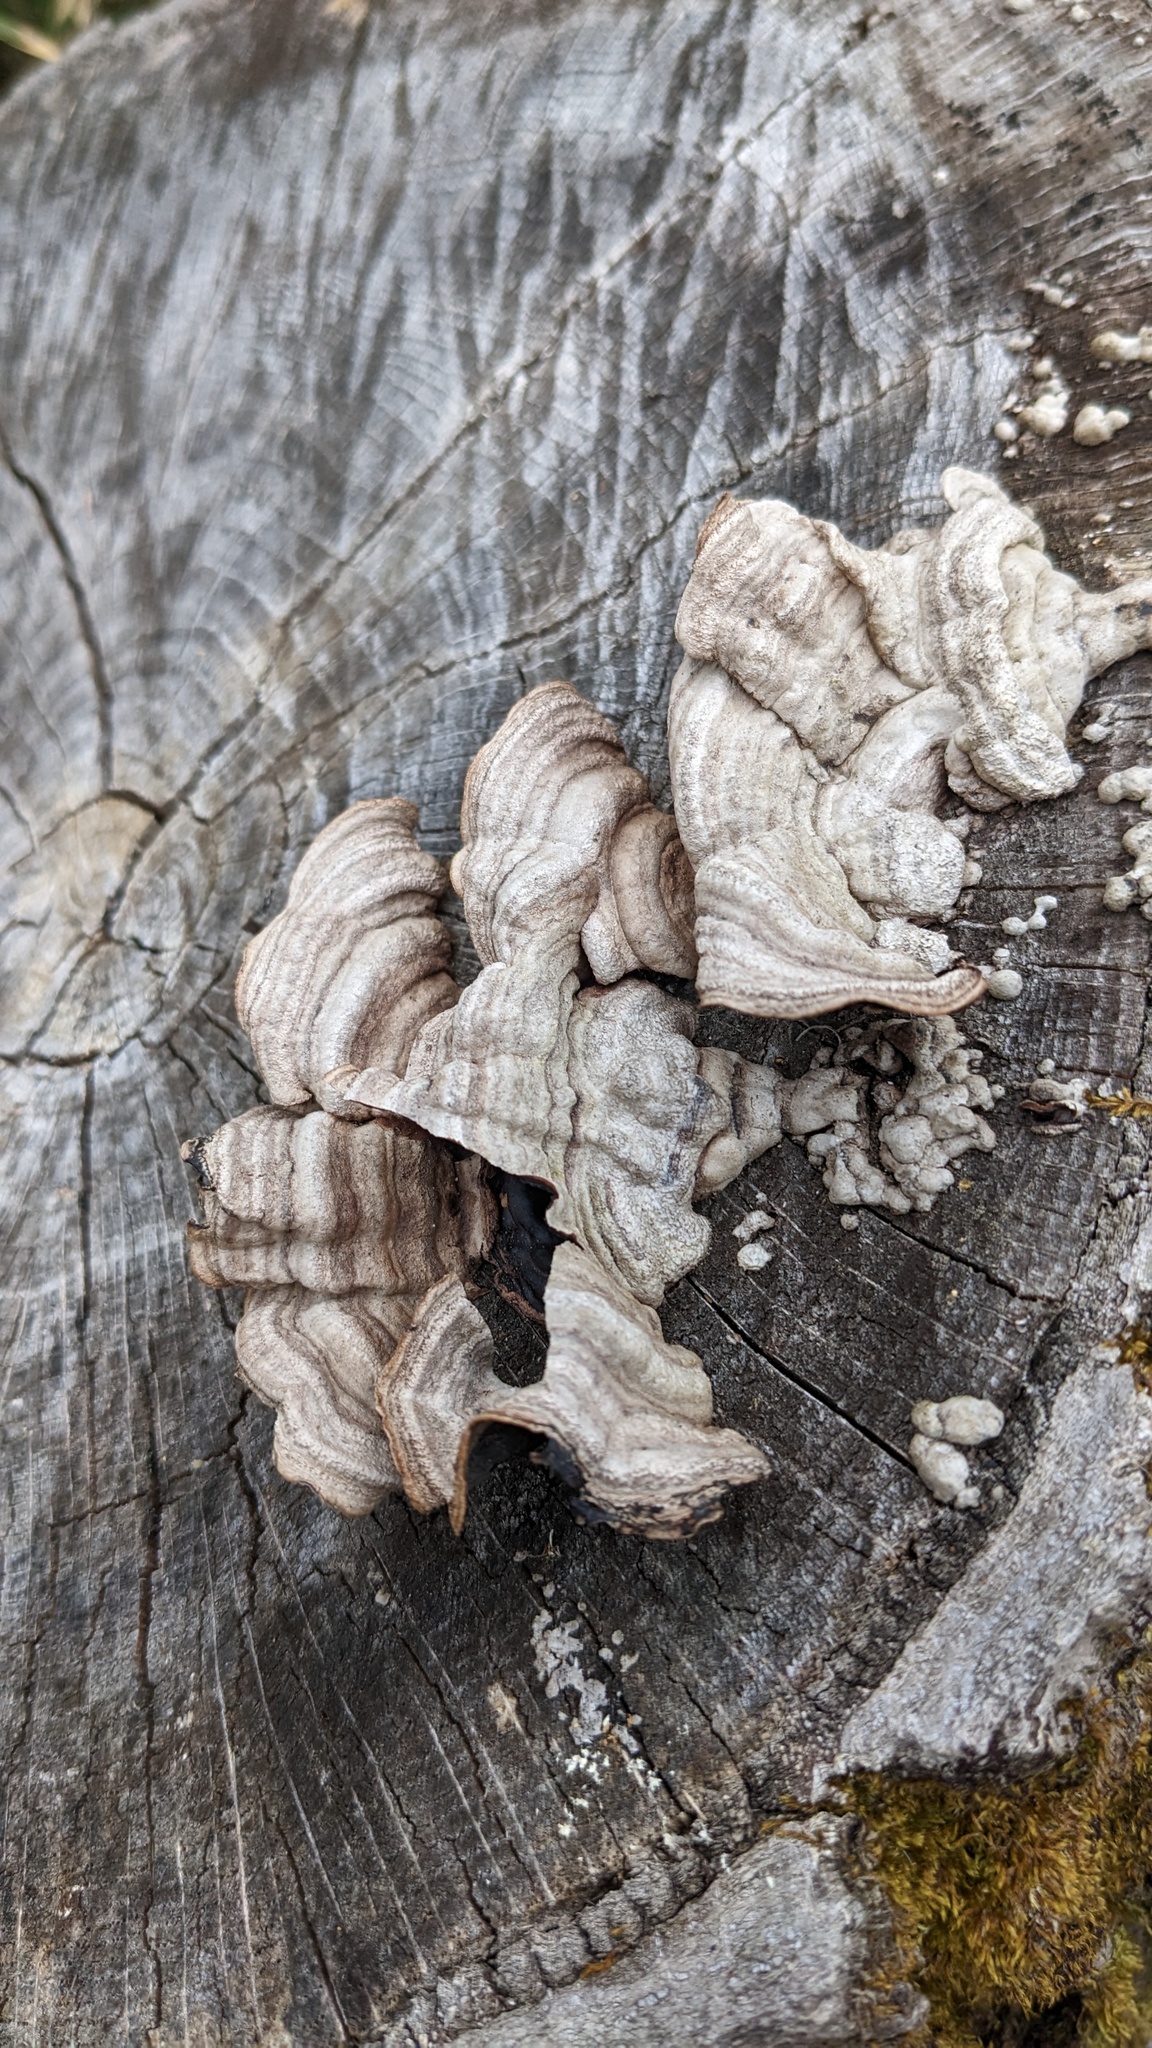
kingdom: Fungi
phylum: Basidiomycota
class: Agaricomycetes
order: Corticiales
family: Punctulariaceae
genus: Punctularia
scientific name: Punctularia strigosozonata
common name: White-rot fungus
